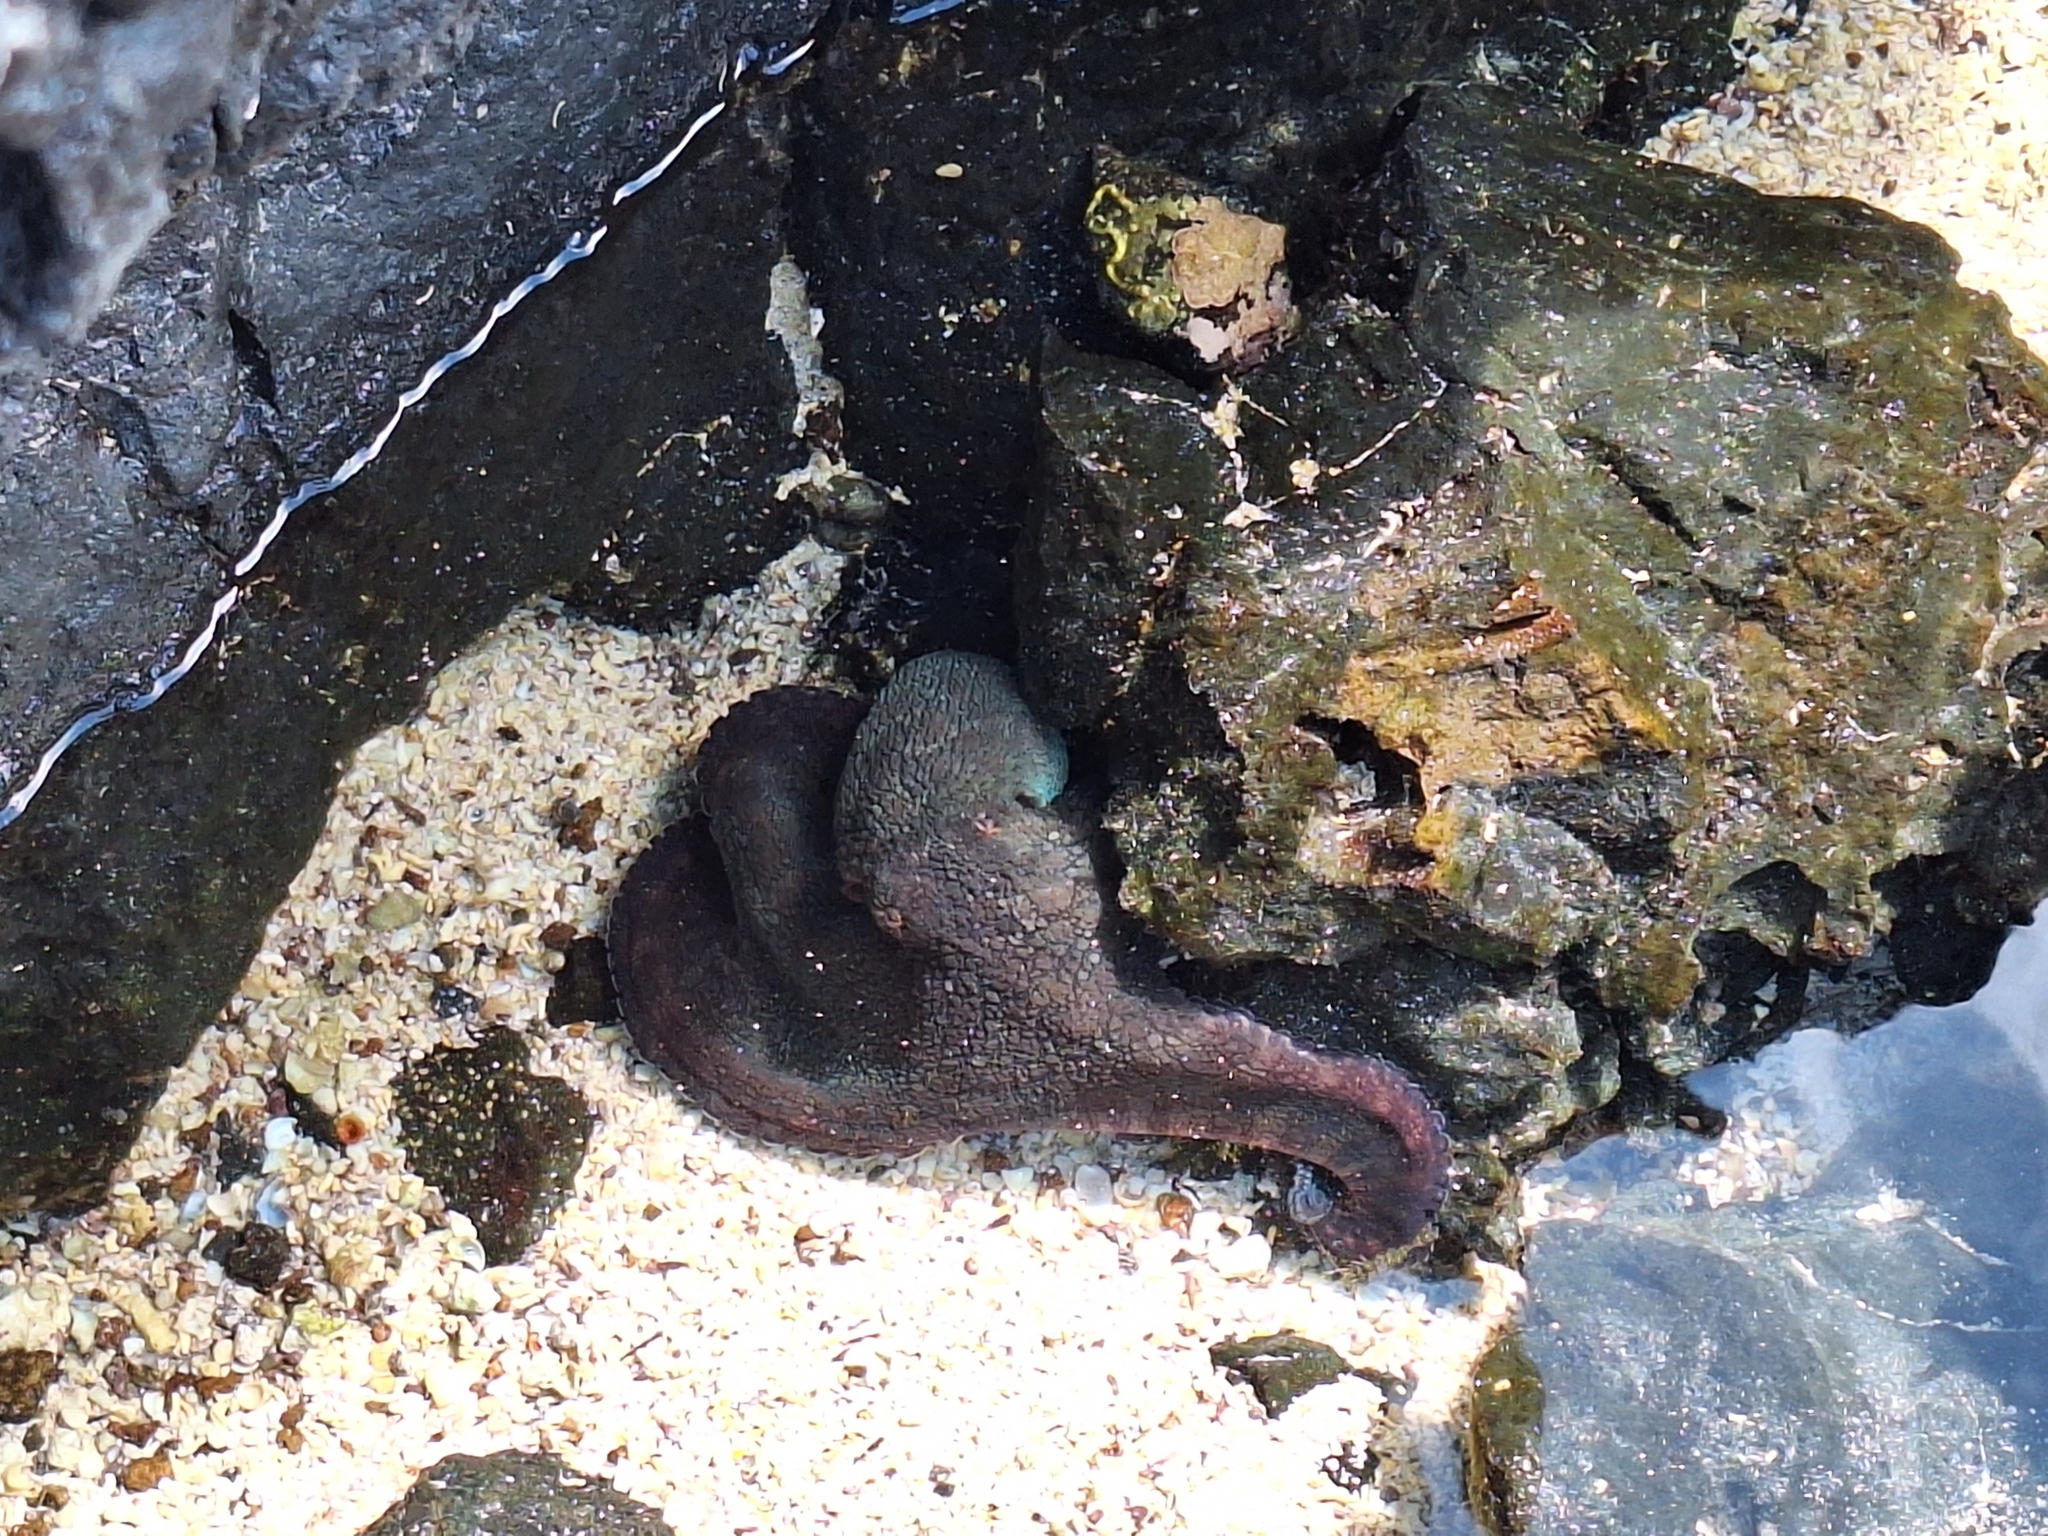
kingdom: Animalia
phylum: Mollusca
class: Cephalopoda
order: Octopoda
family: Octopodidae
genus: Octopus
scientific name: Octopus oculifer
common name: Reef octopus
